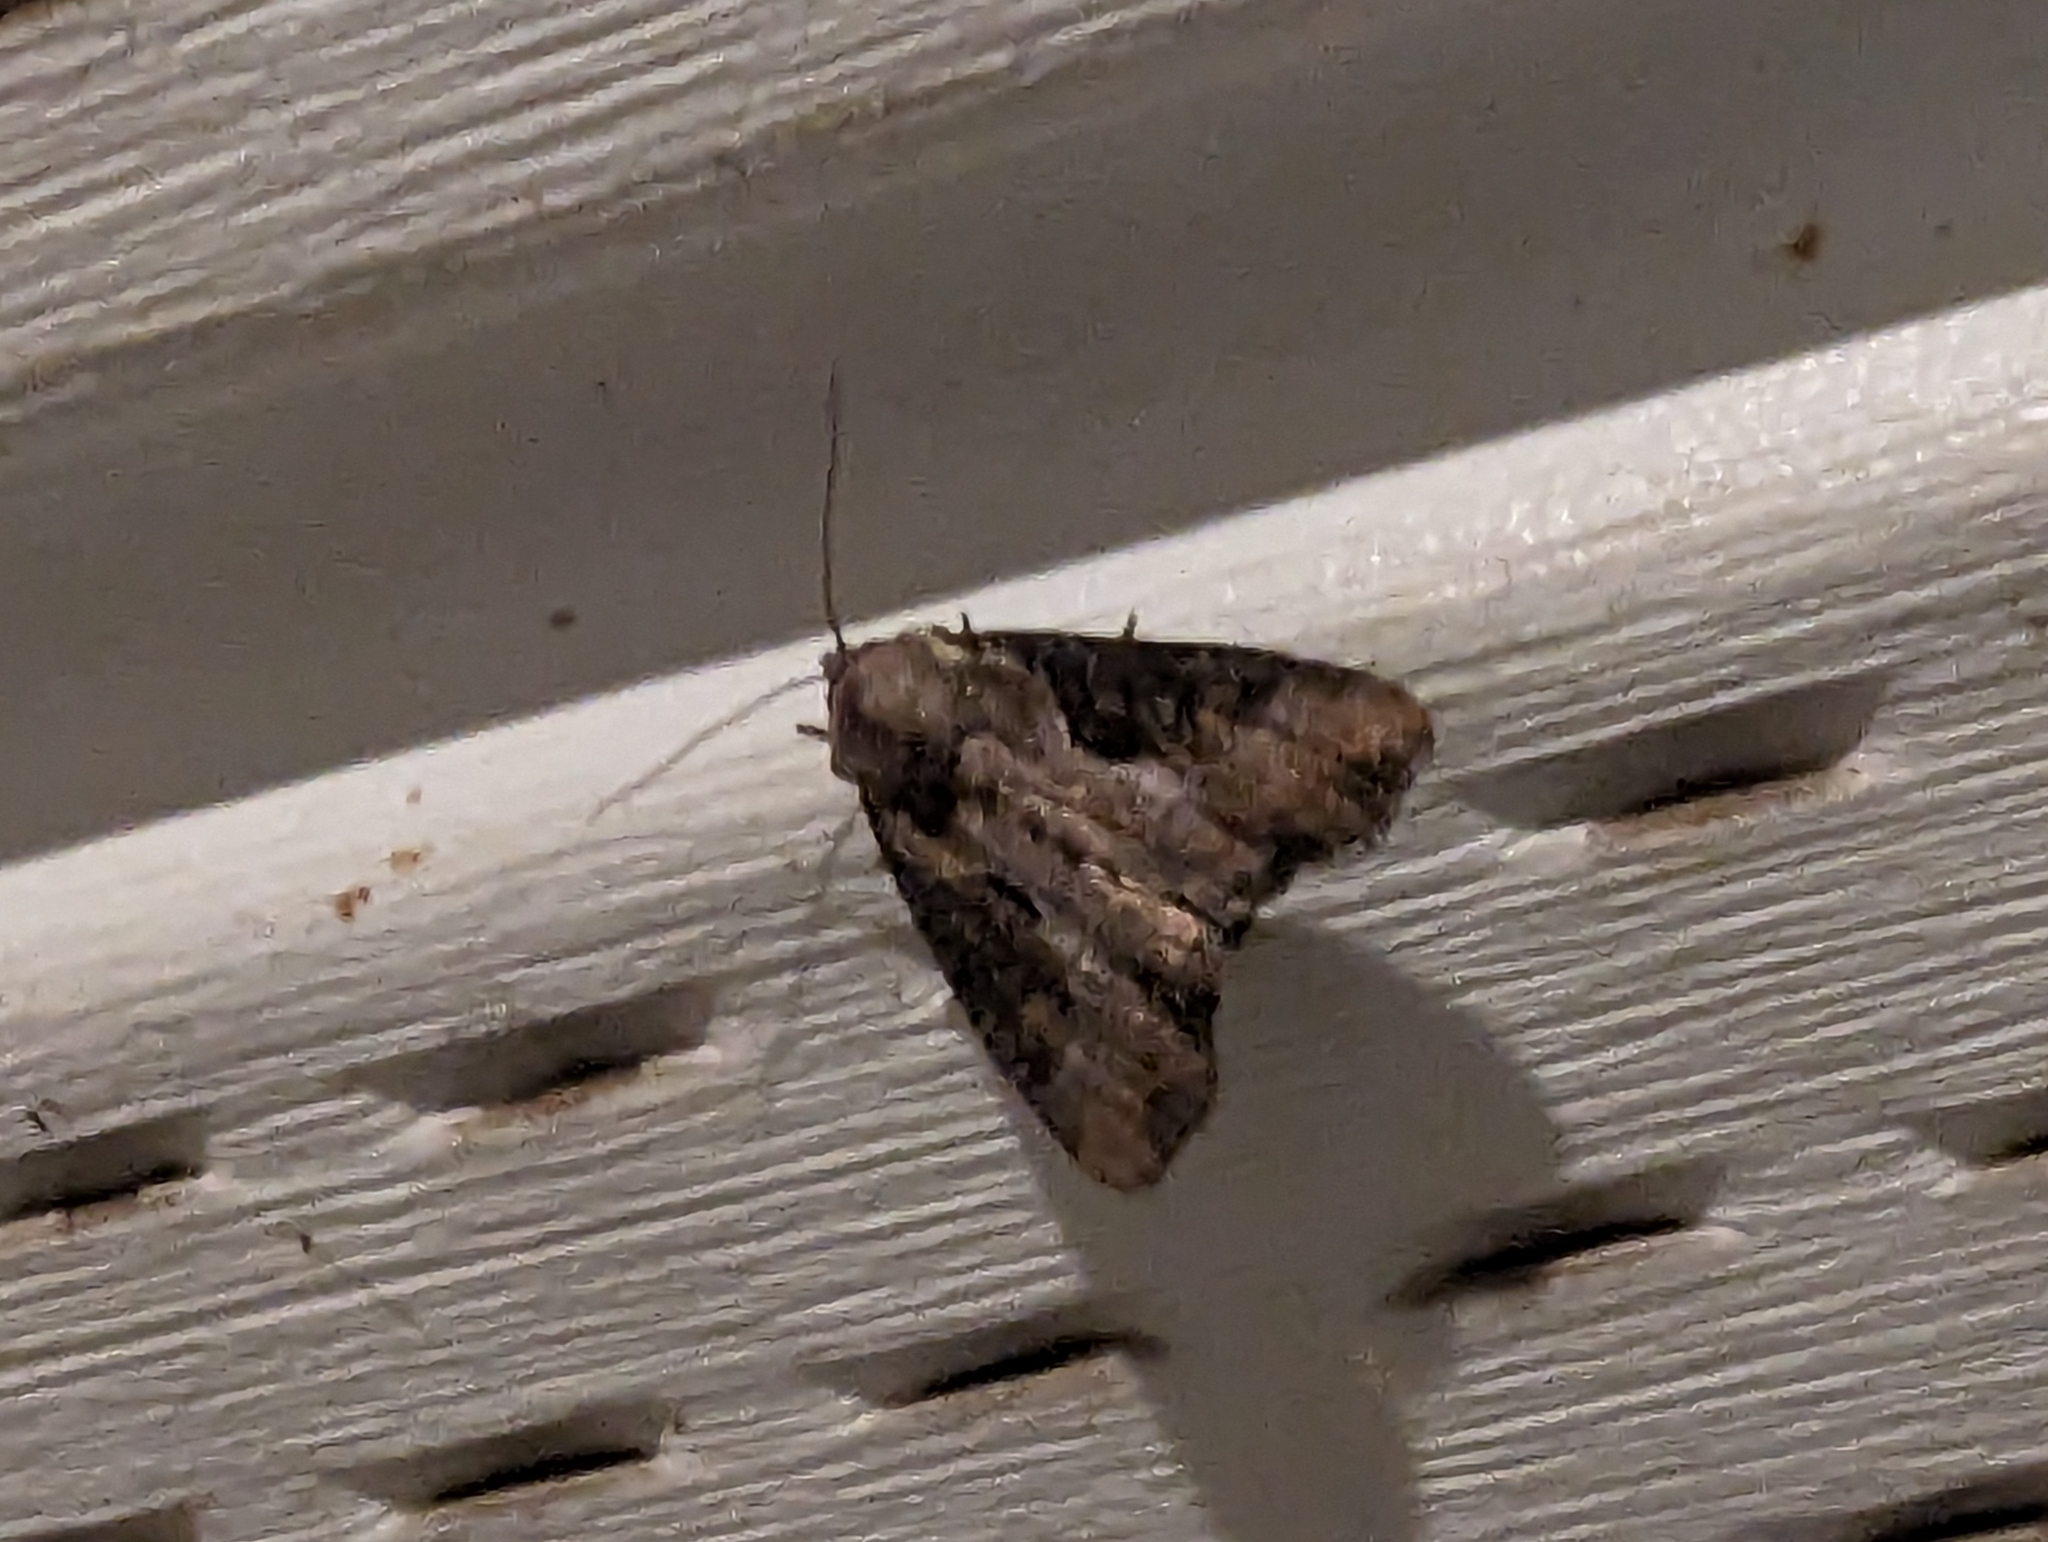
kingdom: Animalia
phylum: Arthropoda
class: Insecta
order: Lepidoptera
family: Noctuidae
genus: Lateroligia
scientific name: Lateroligia ophiogramma
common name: Double lobed
